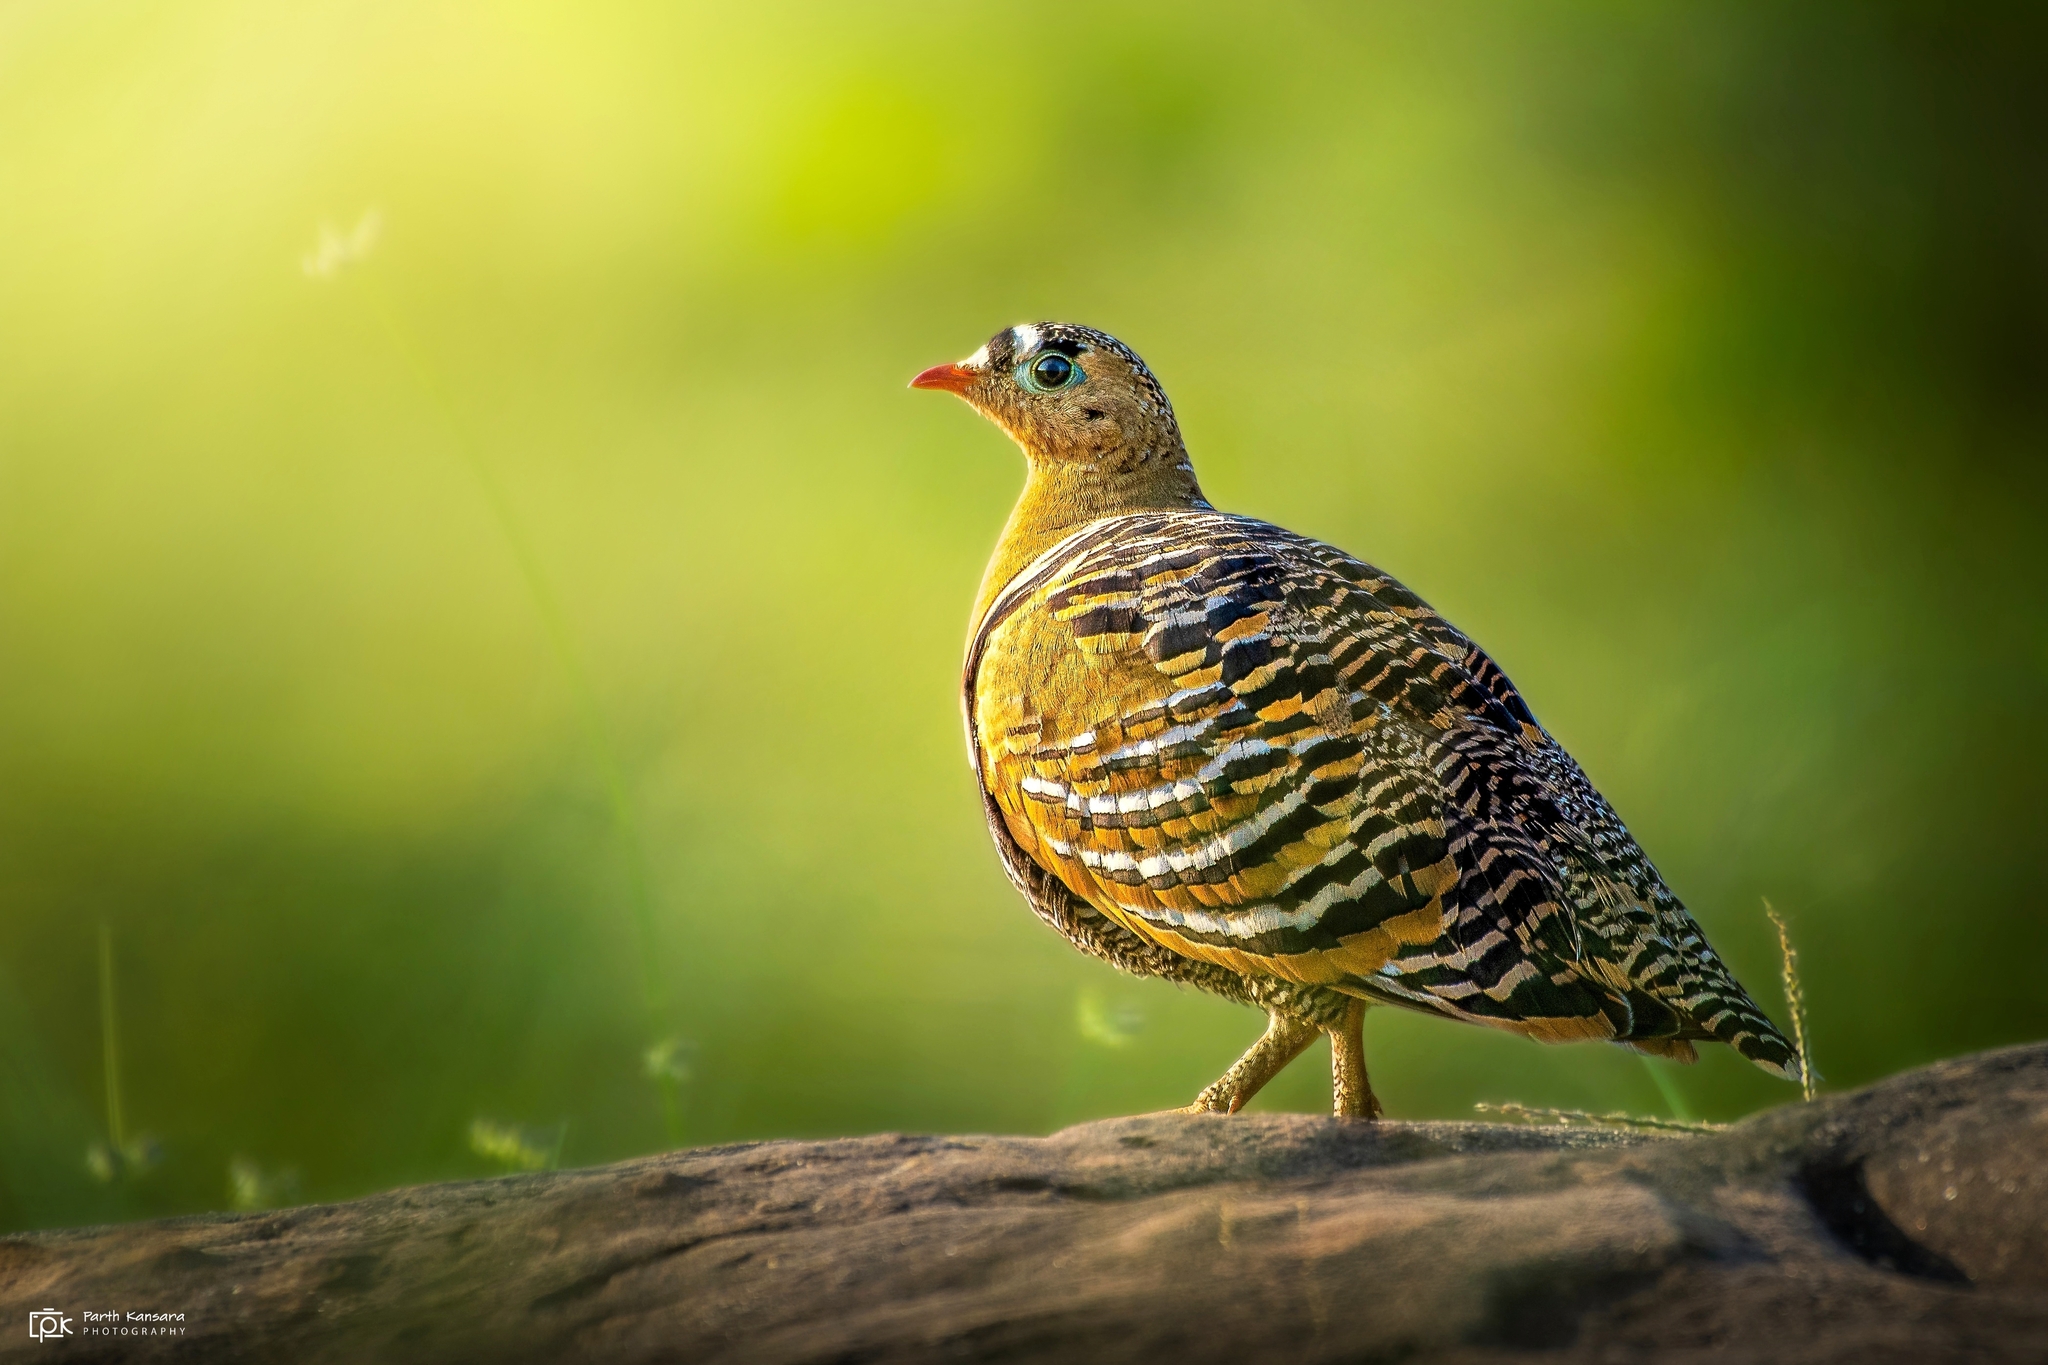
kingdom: Animalia
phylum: Chordata
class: Aves
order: Pteroclidiformes
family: Pteroclididae
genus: Pterocles
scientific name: Pterocles indicus
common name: Painted sandgrouse
